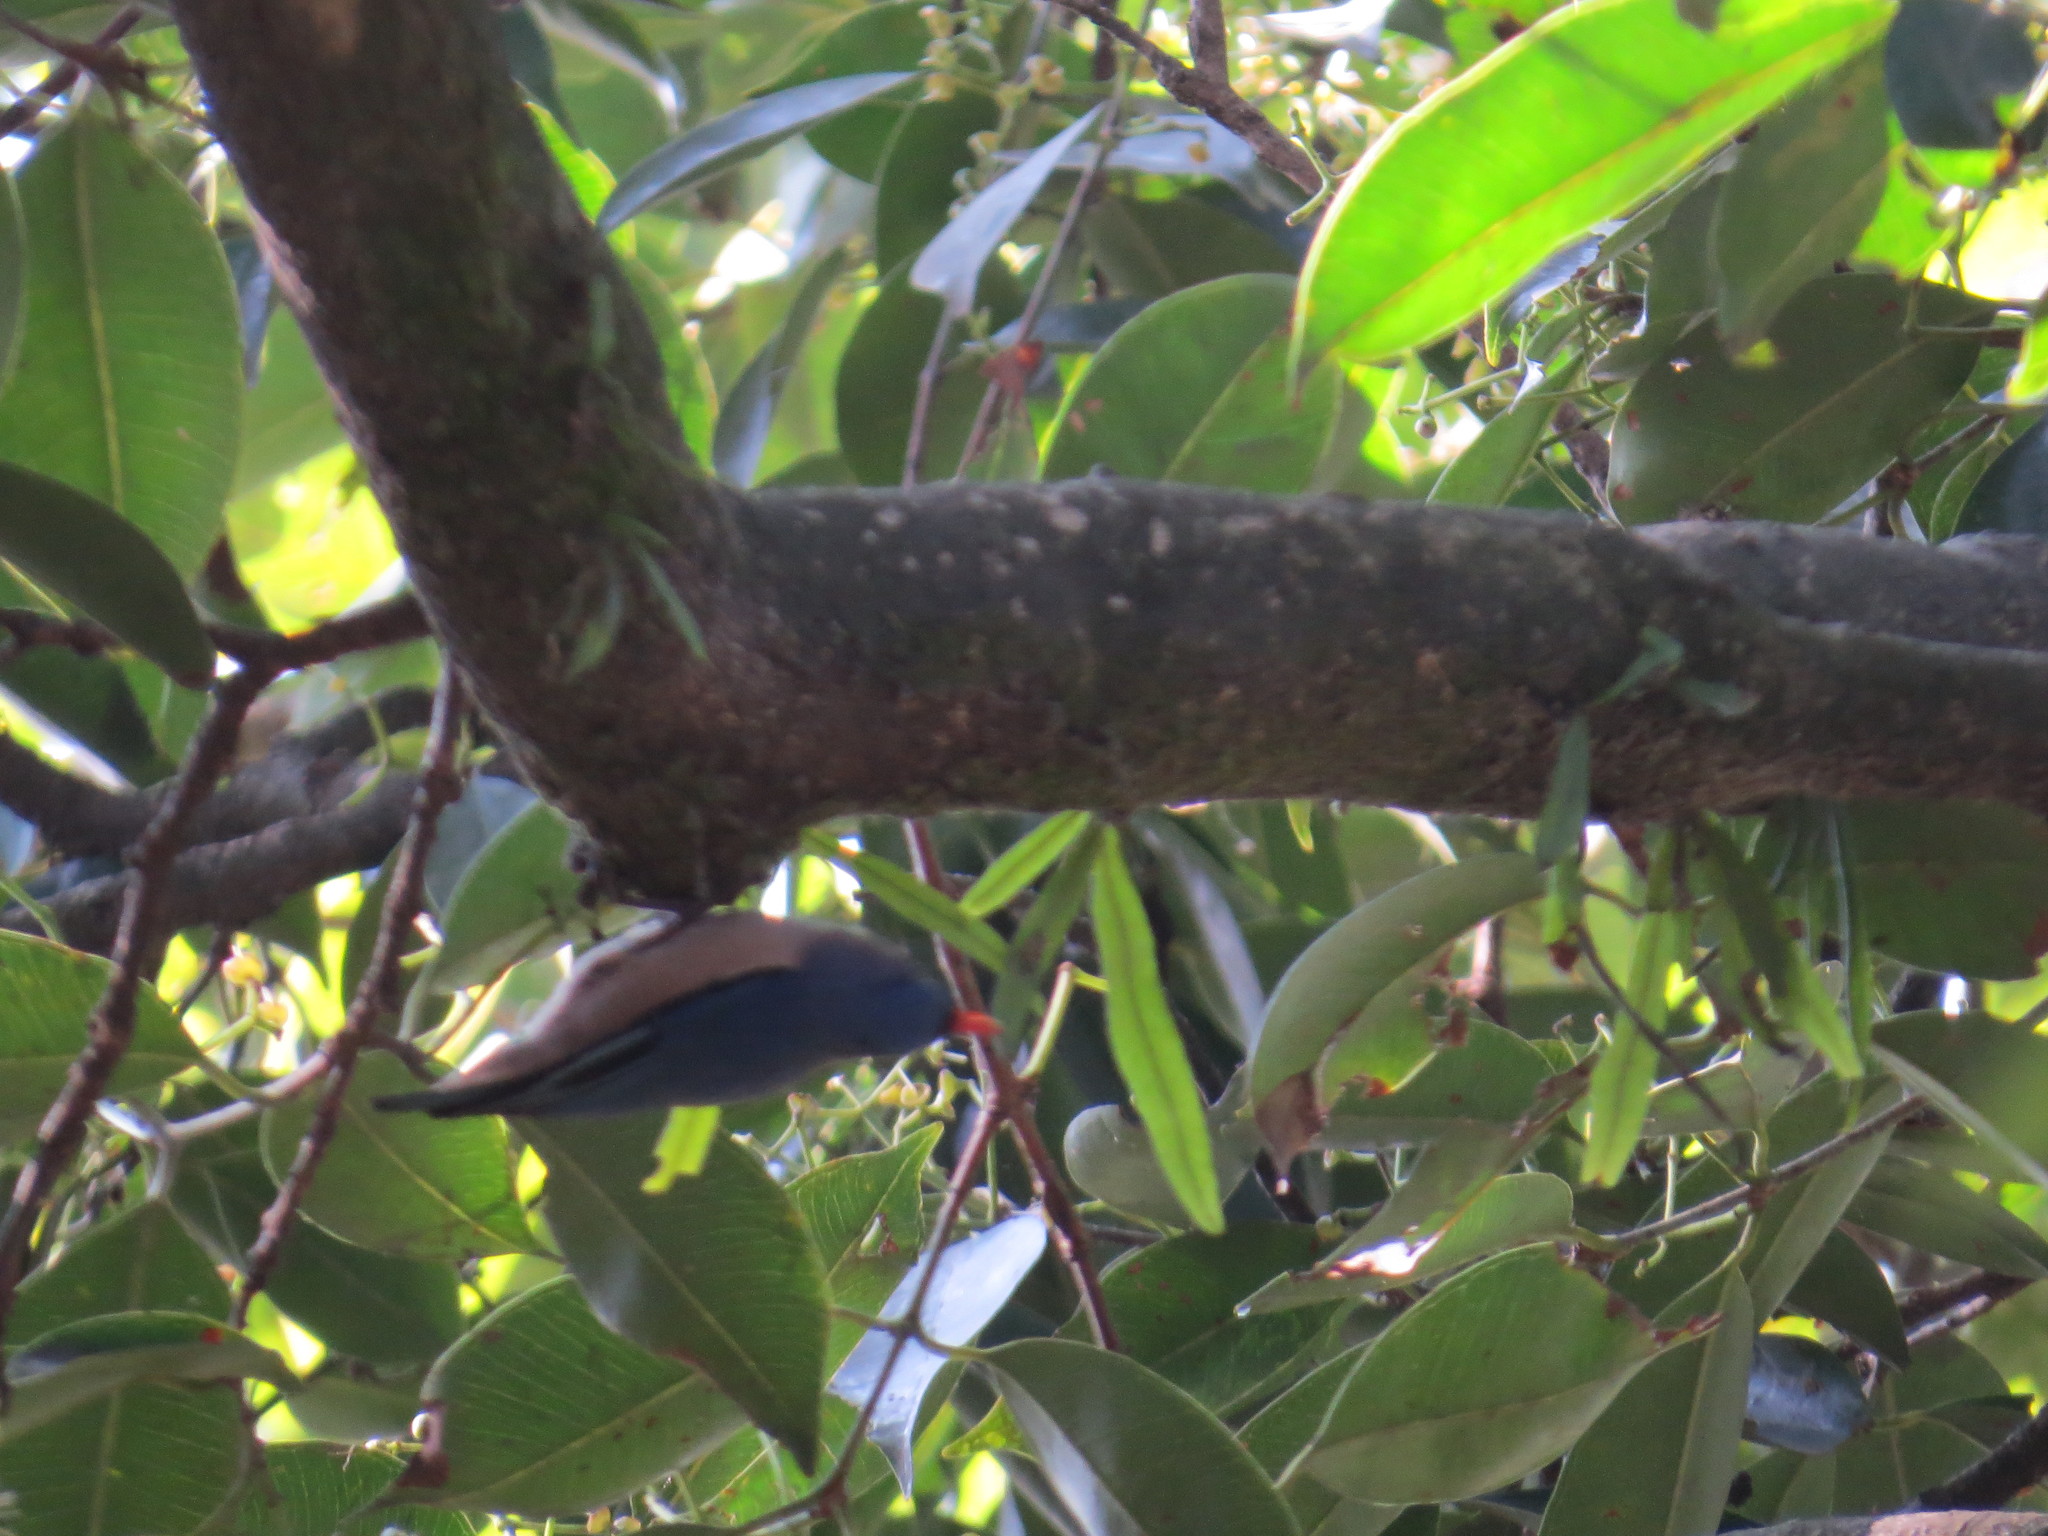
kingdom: Animalia
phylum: Chordata
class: Aves
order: Passeriformes
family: Sittidae
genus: Sitta
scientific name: Sitta frontalis
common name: Velvet-fronted nuthatch
